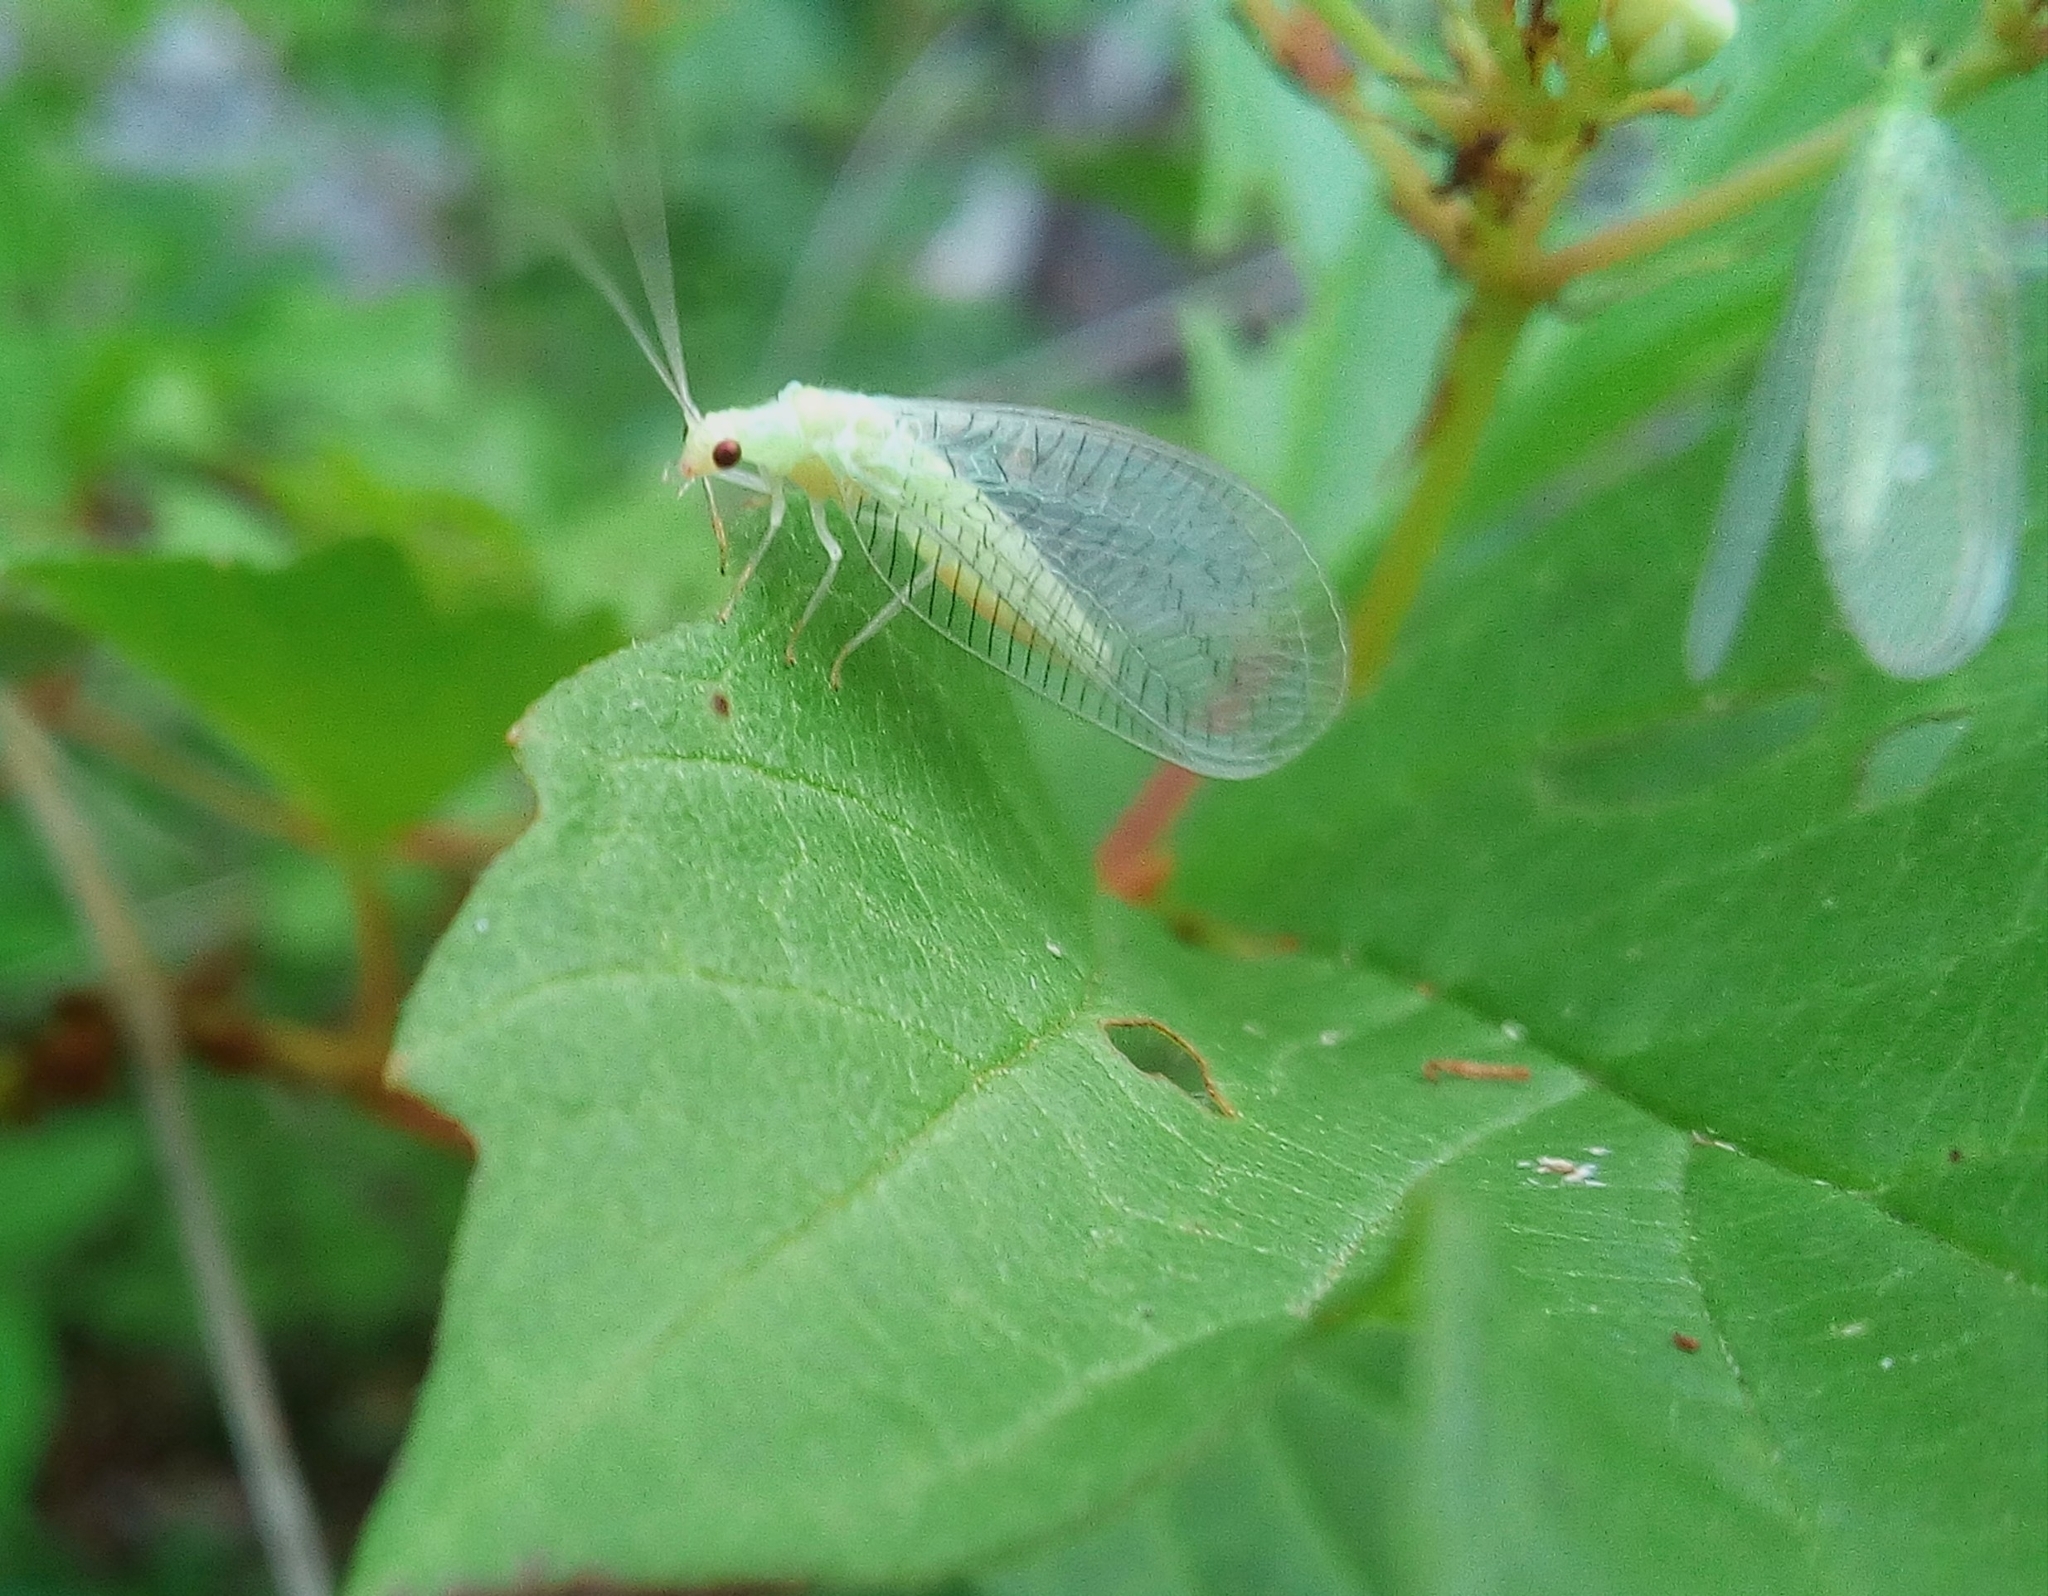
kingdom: Animalia
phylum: Arthropoda
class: Insecta
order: Neuroptera
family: Chrysopidae
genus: Chrysopidia
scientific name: Chrysopidia ciliata
